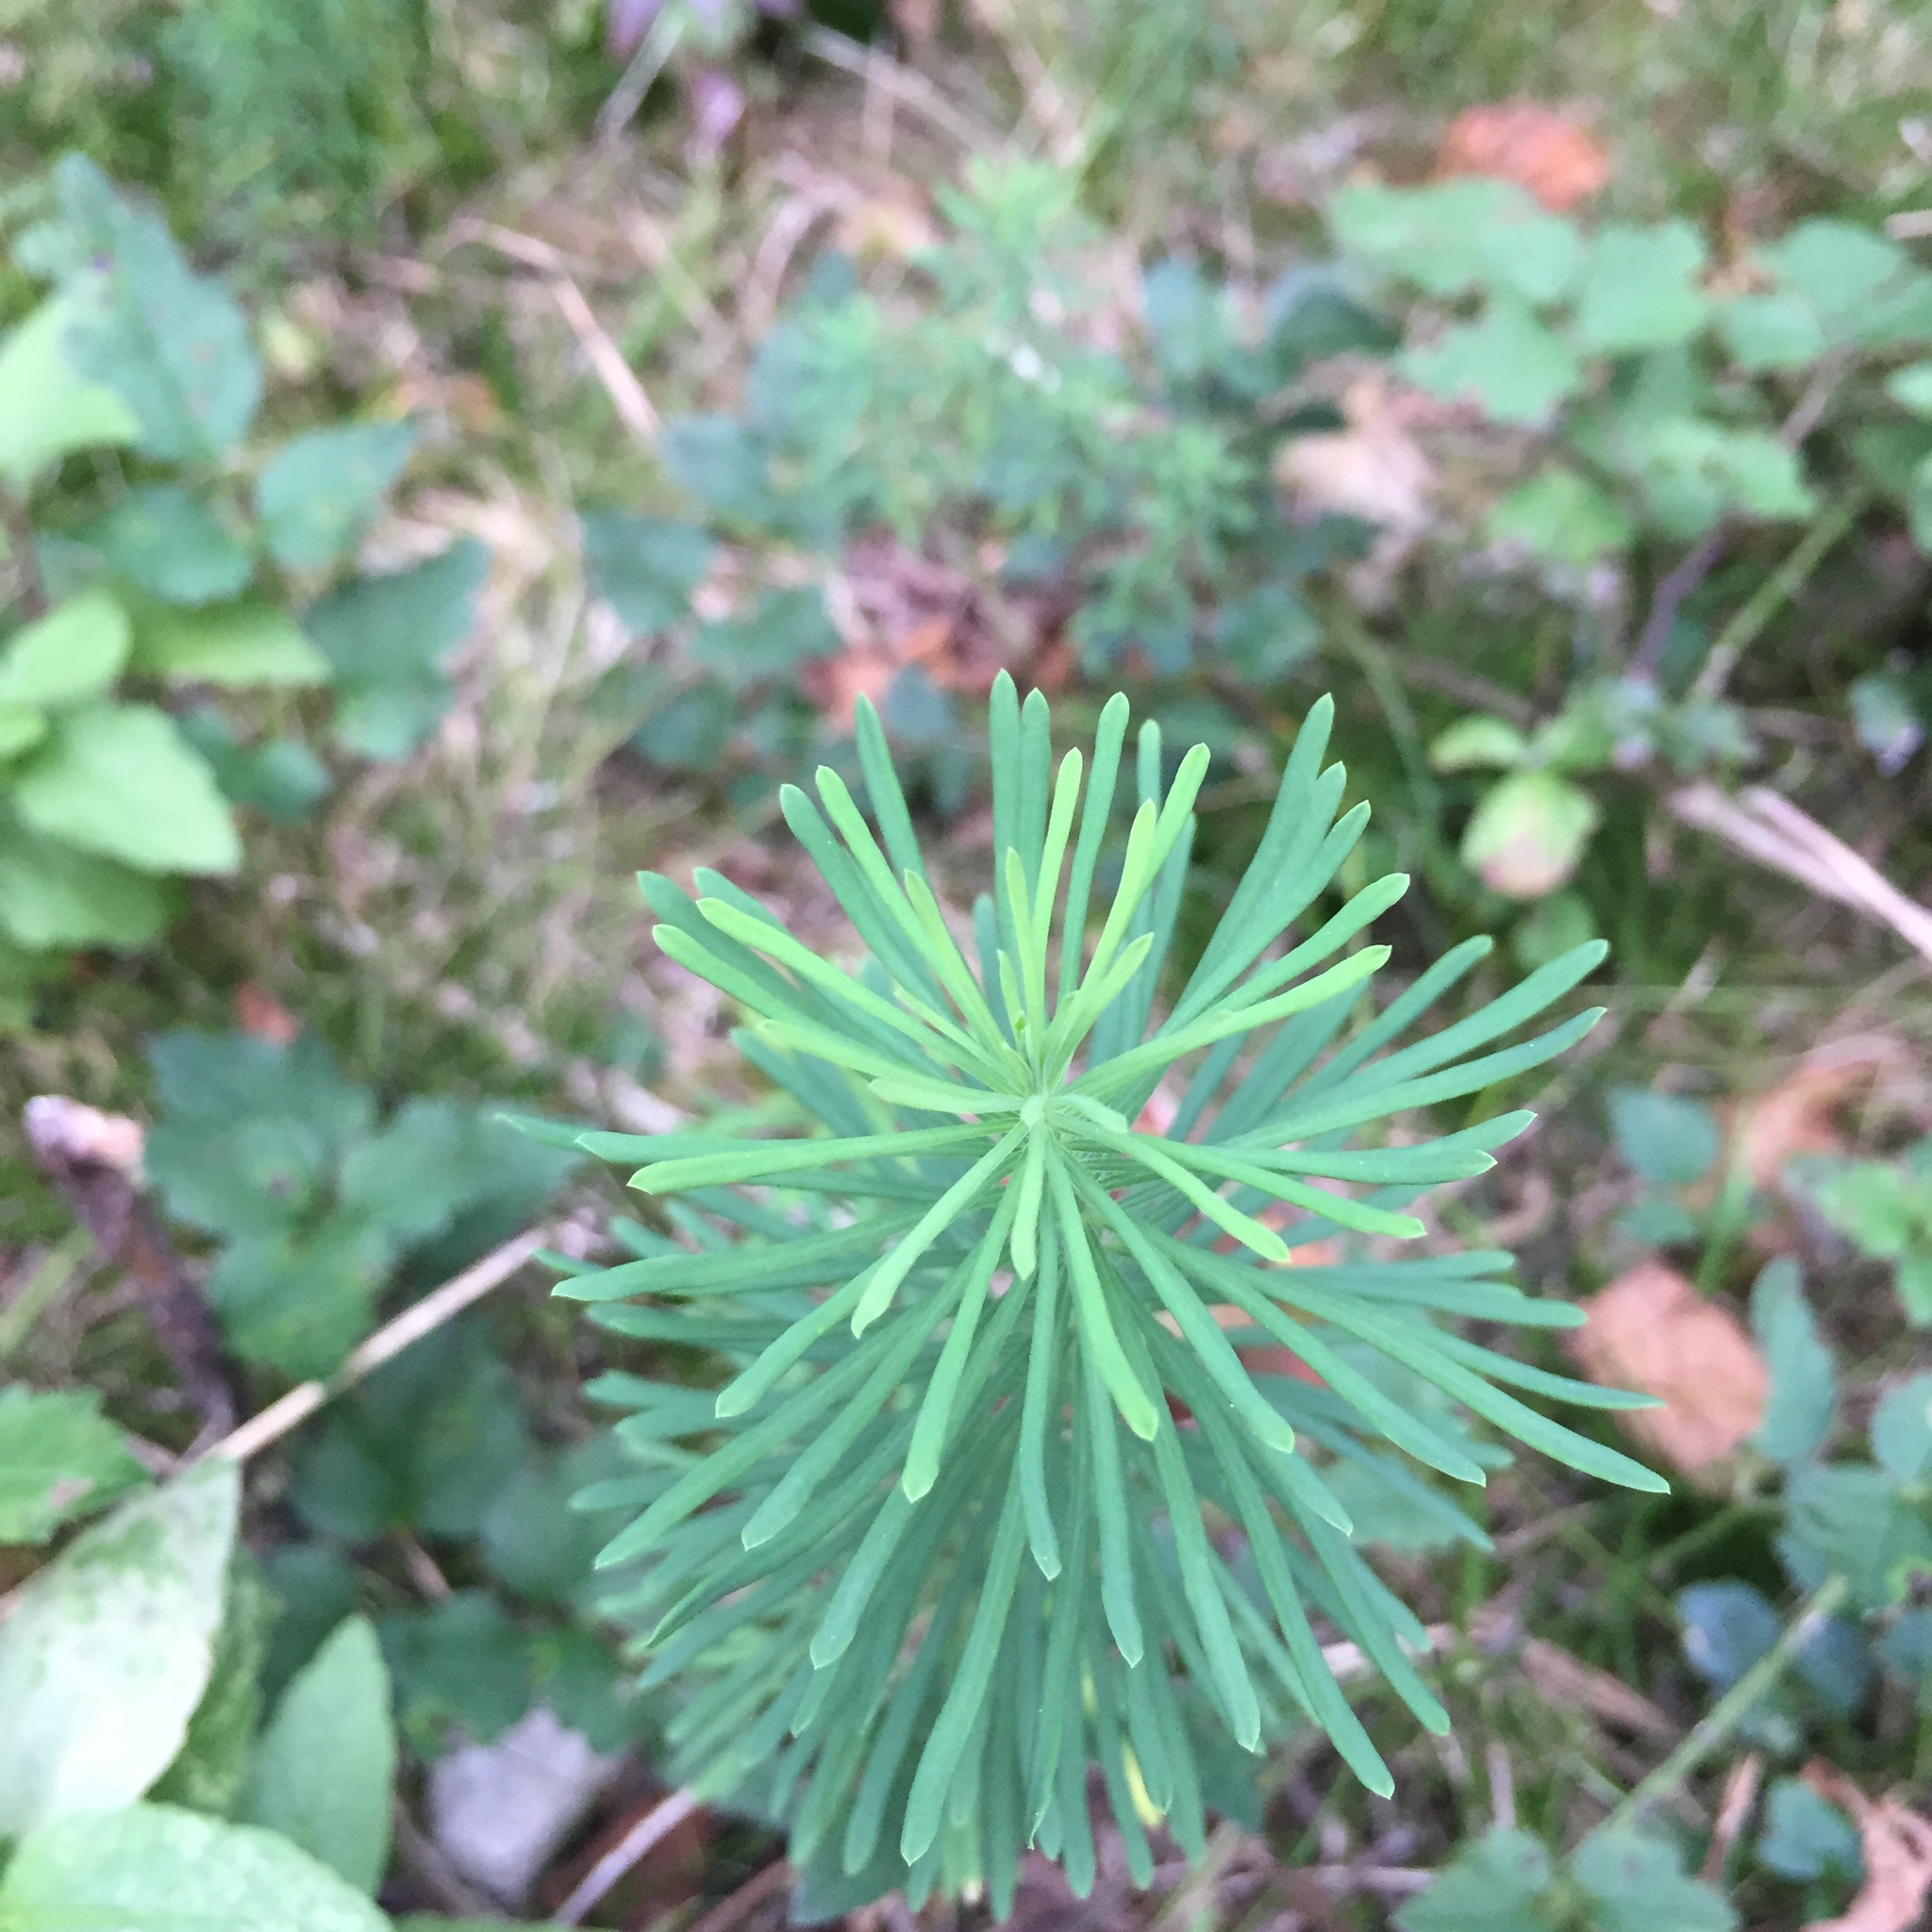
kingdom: Plantae
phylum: Tracheophyta
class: Magnoliopsida
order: Malpighiales
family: Euphorbiaceae
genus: Euphorbia
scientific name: Euphorbia cyparissias
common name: Cypress spurge
